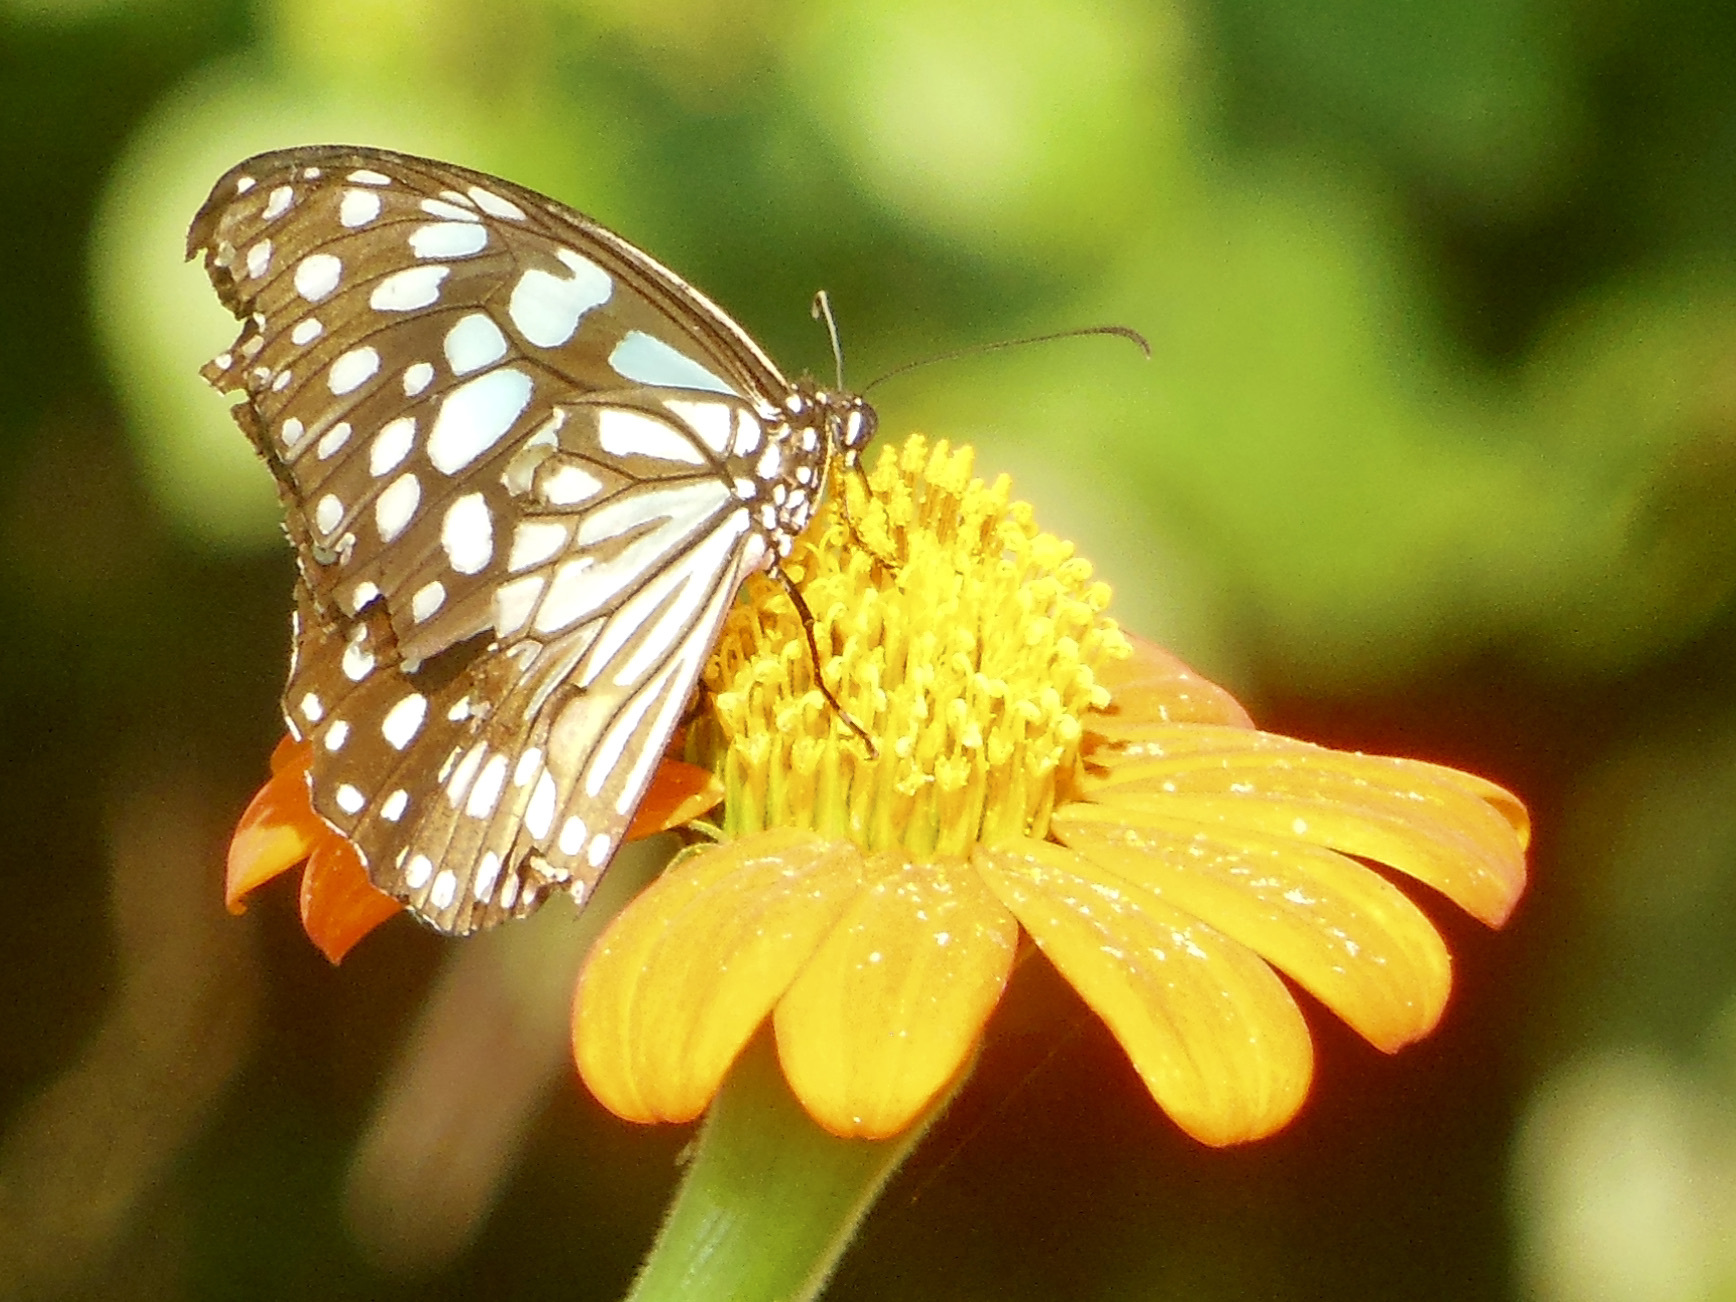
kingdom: Animalia
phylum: Arthropoda
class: Insecta
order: Lepidoptera
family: Nymphalidae
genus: Tirumala
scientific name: Tirumala limniace
